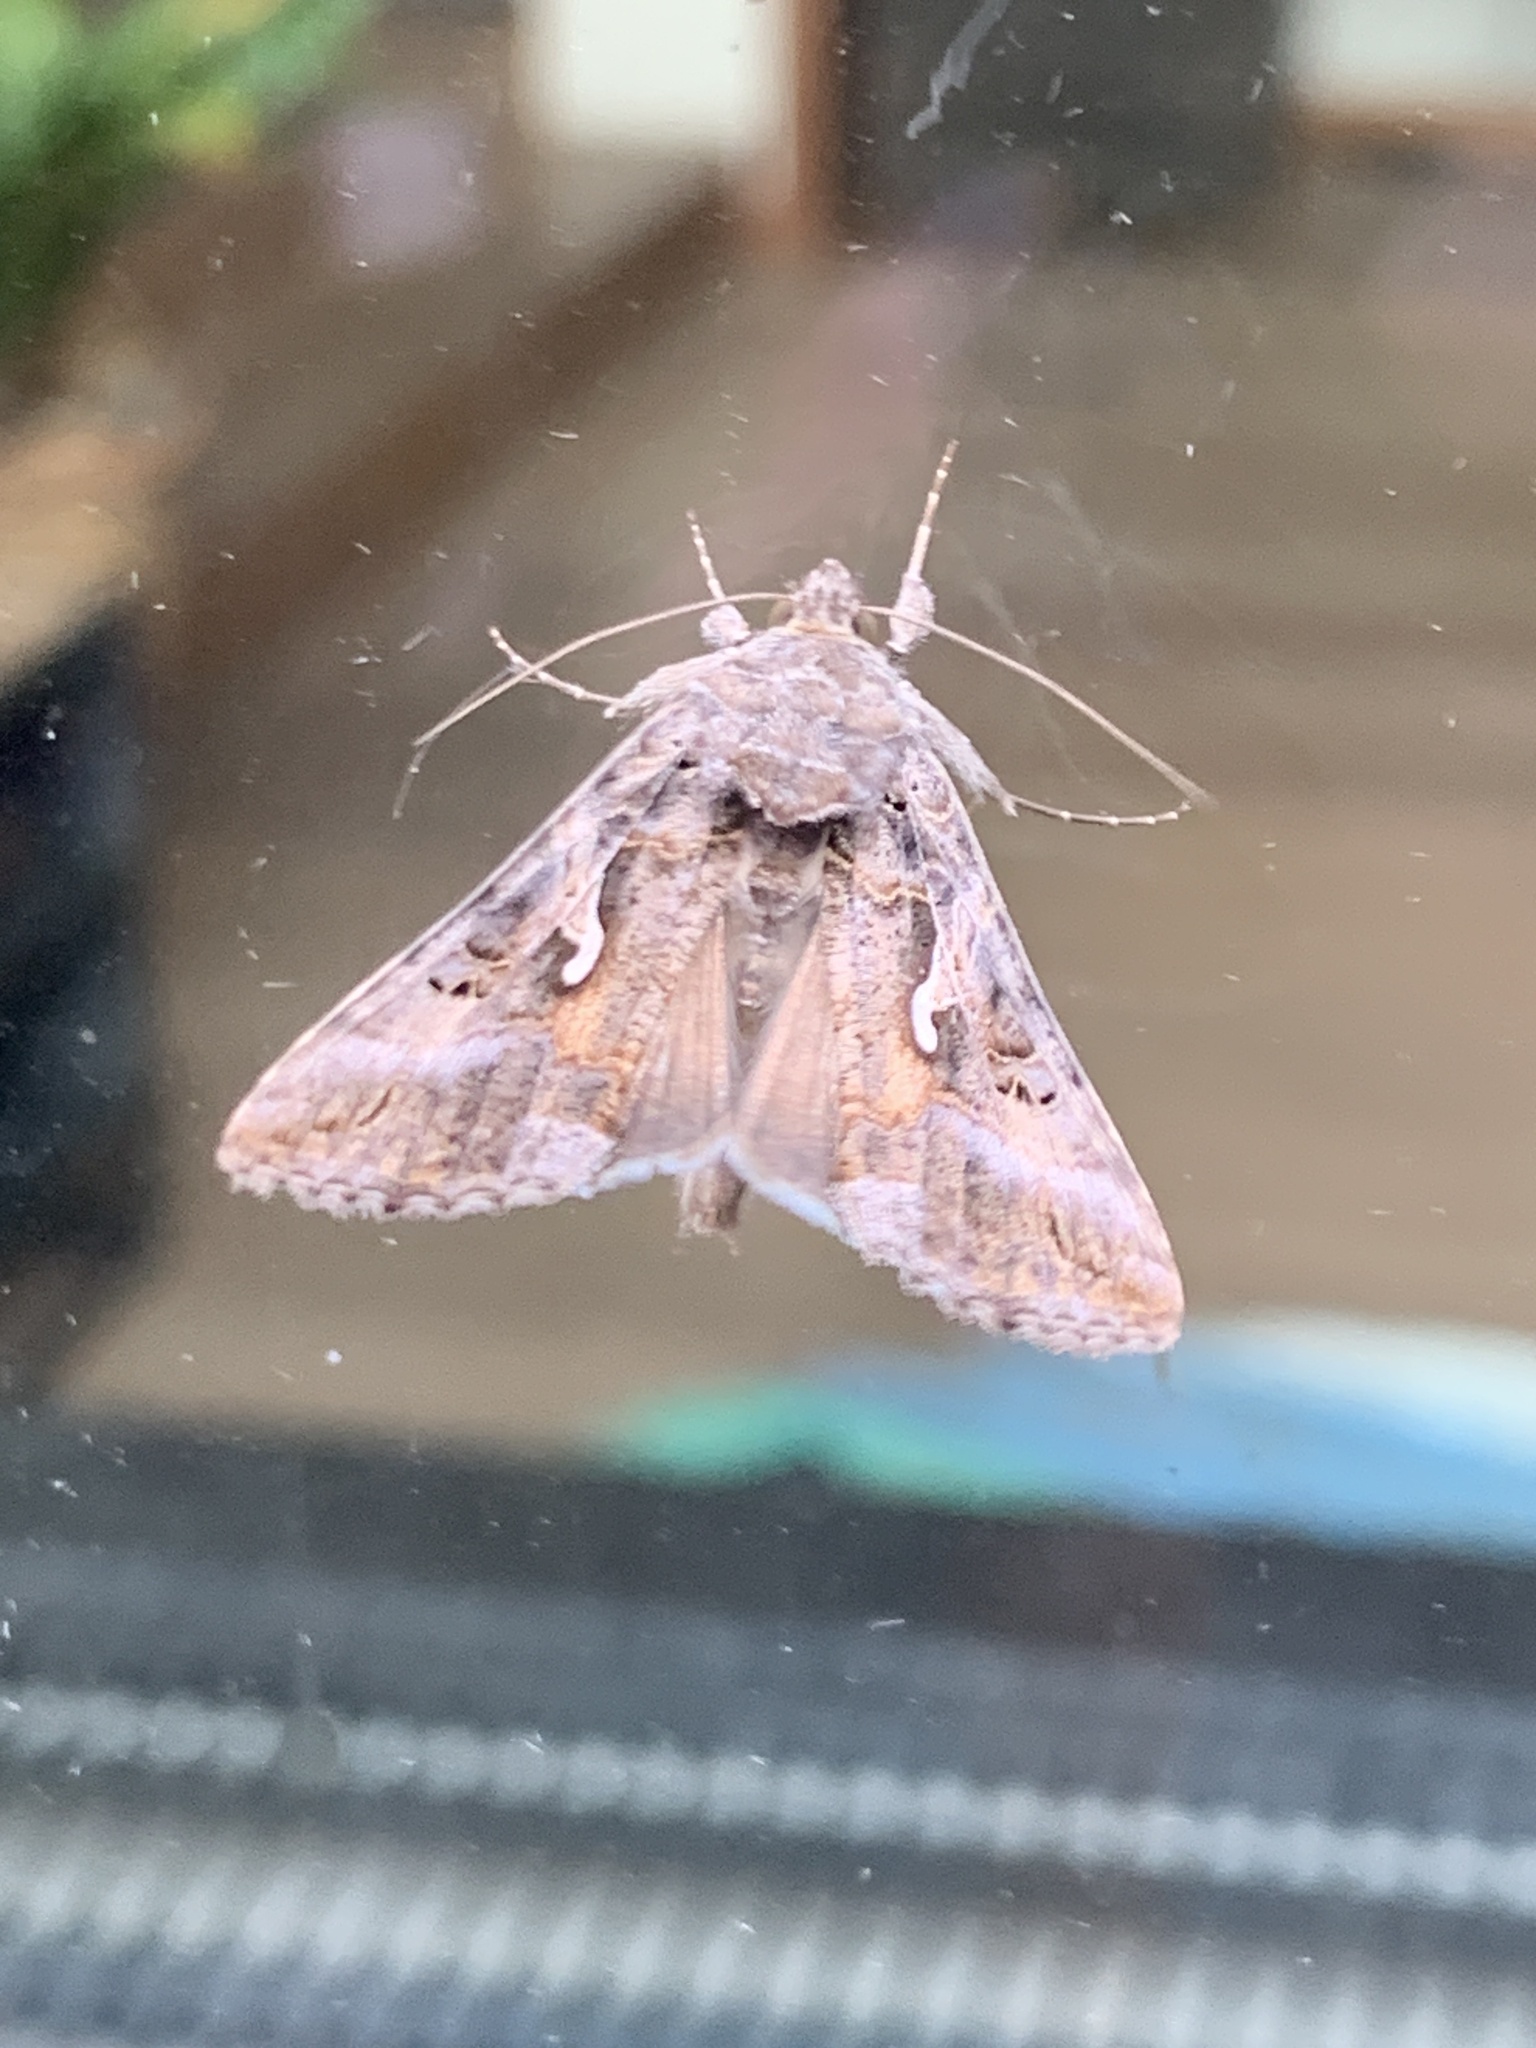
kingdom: Animalia
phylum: Arthropoda
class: Insecta
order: Lepidoptera
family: Noctuidae
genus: Autographa
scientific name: Autographa gamma
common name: Silver y
